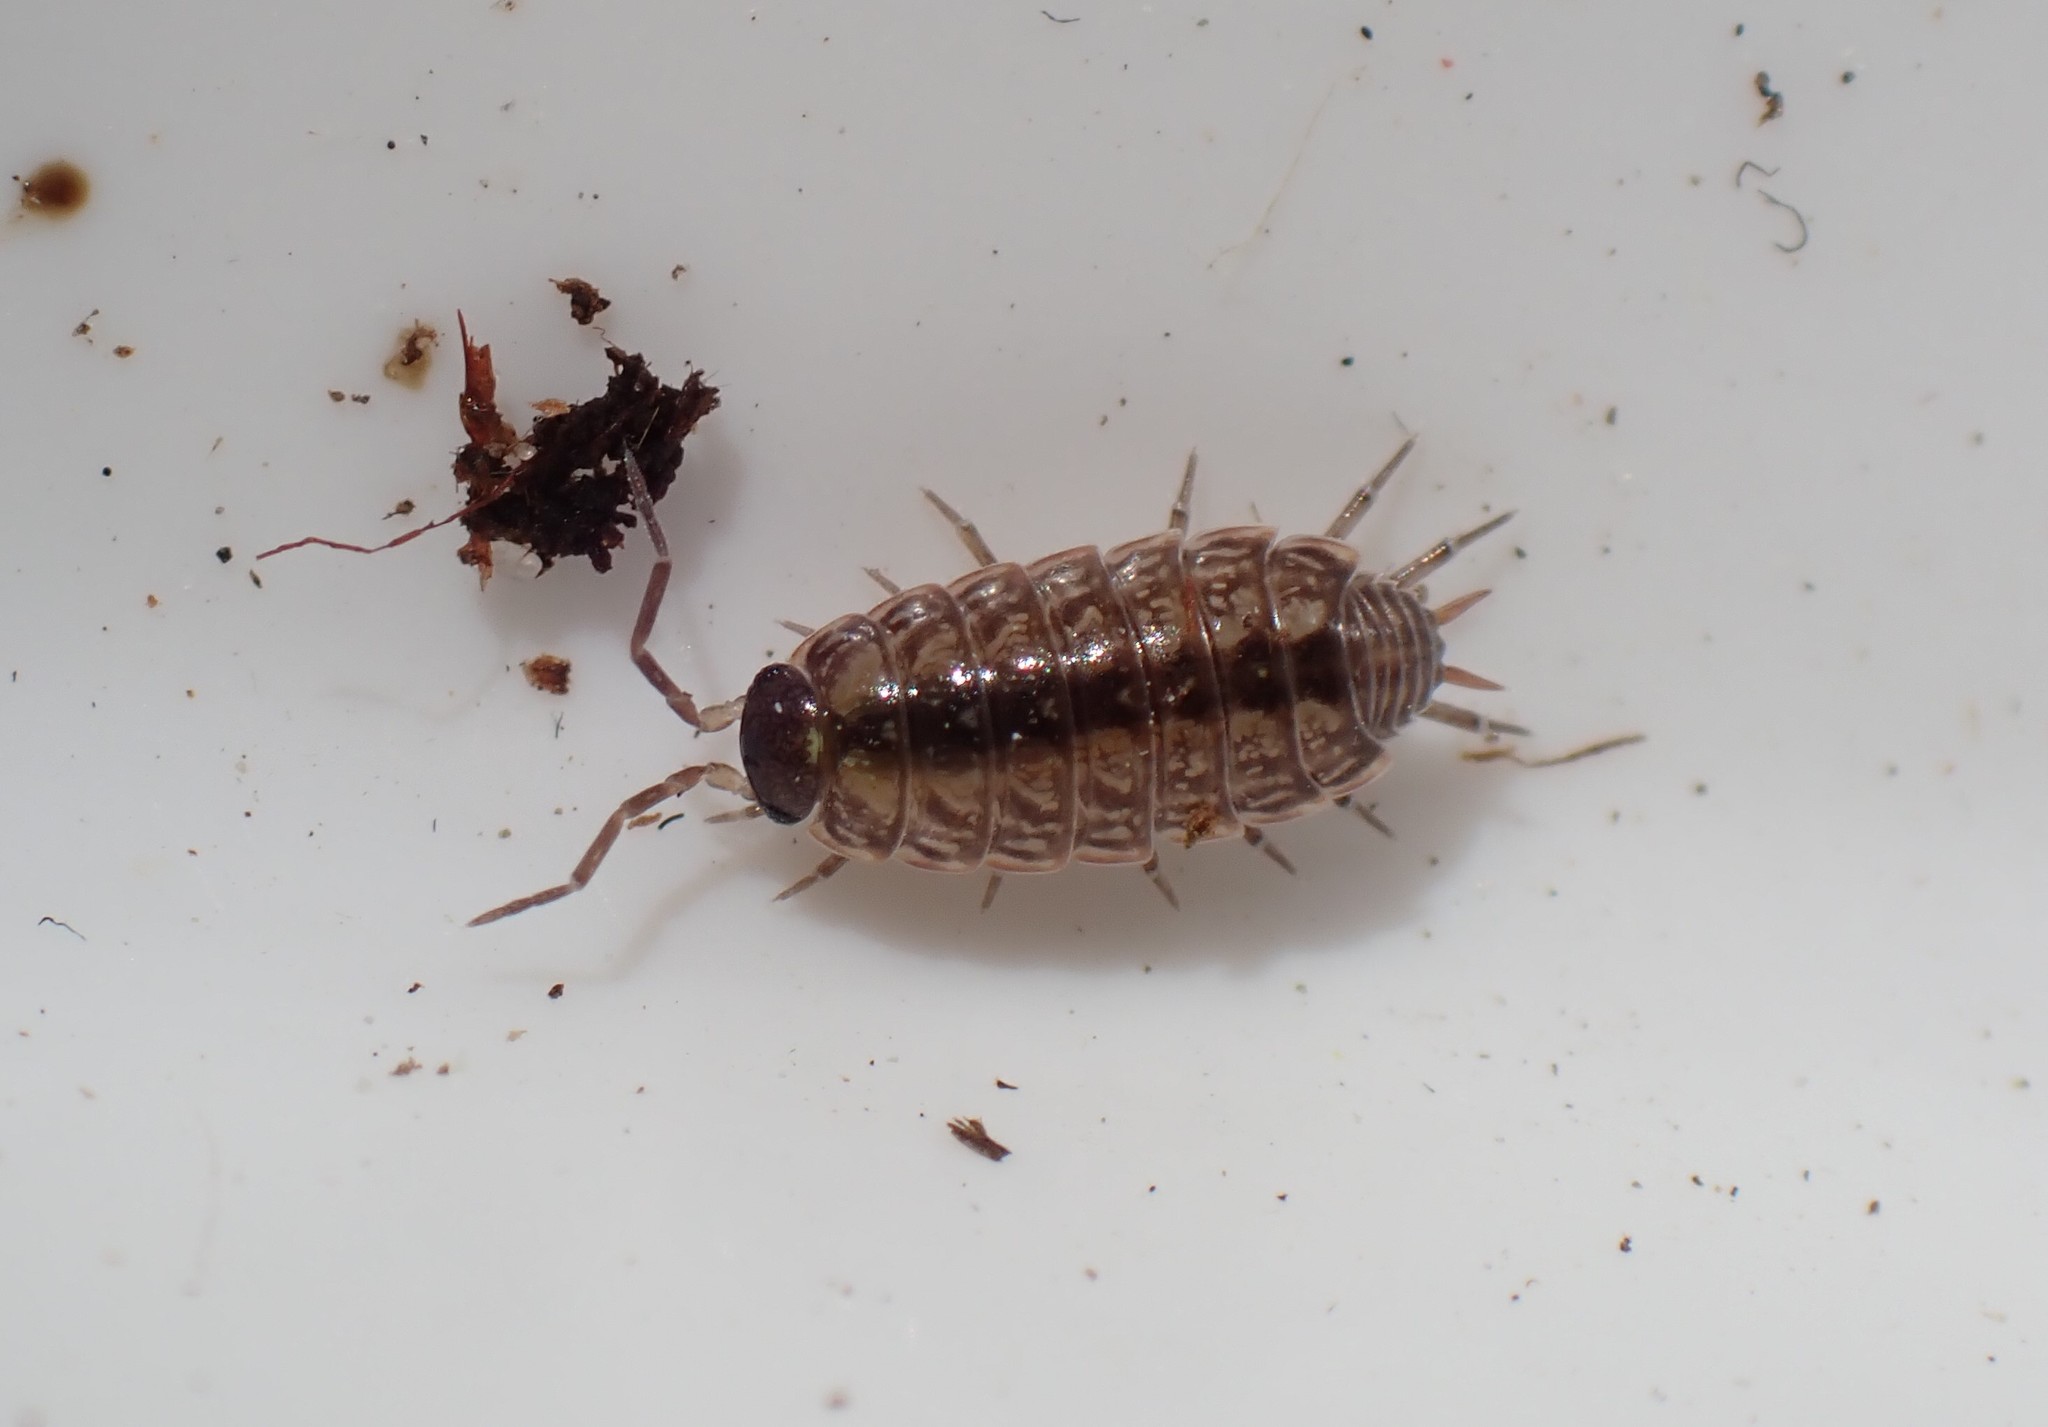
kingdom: Animalia
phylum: Arthropoda
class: Malacostraca
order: Isopoda
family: Philosciidae
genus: Philoscia
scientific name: Philoscia muscorum
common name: Common striped woodlouse
